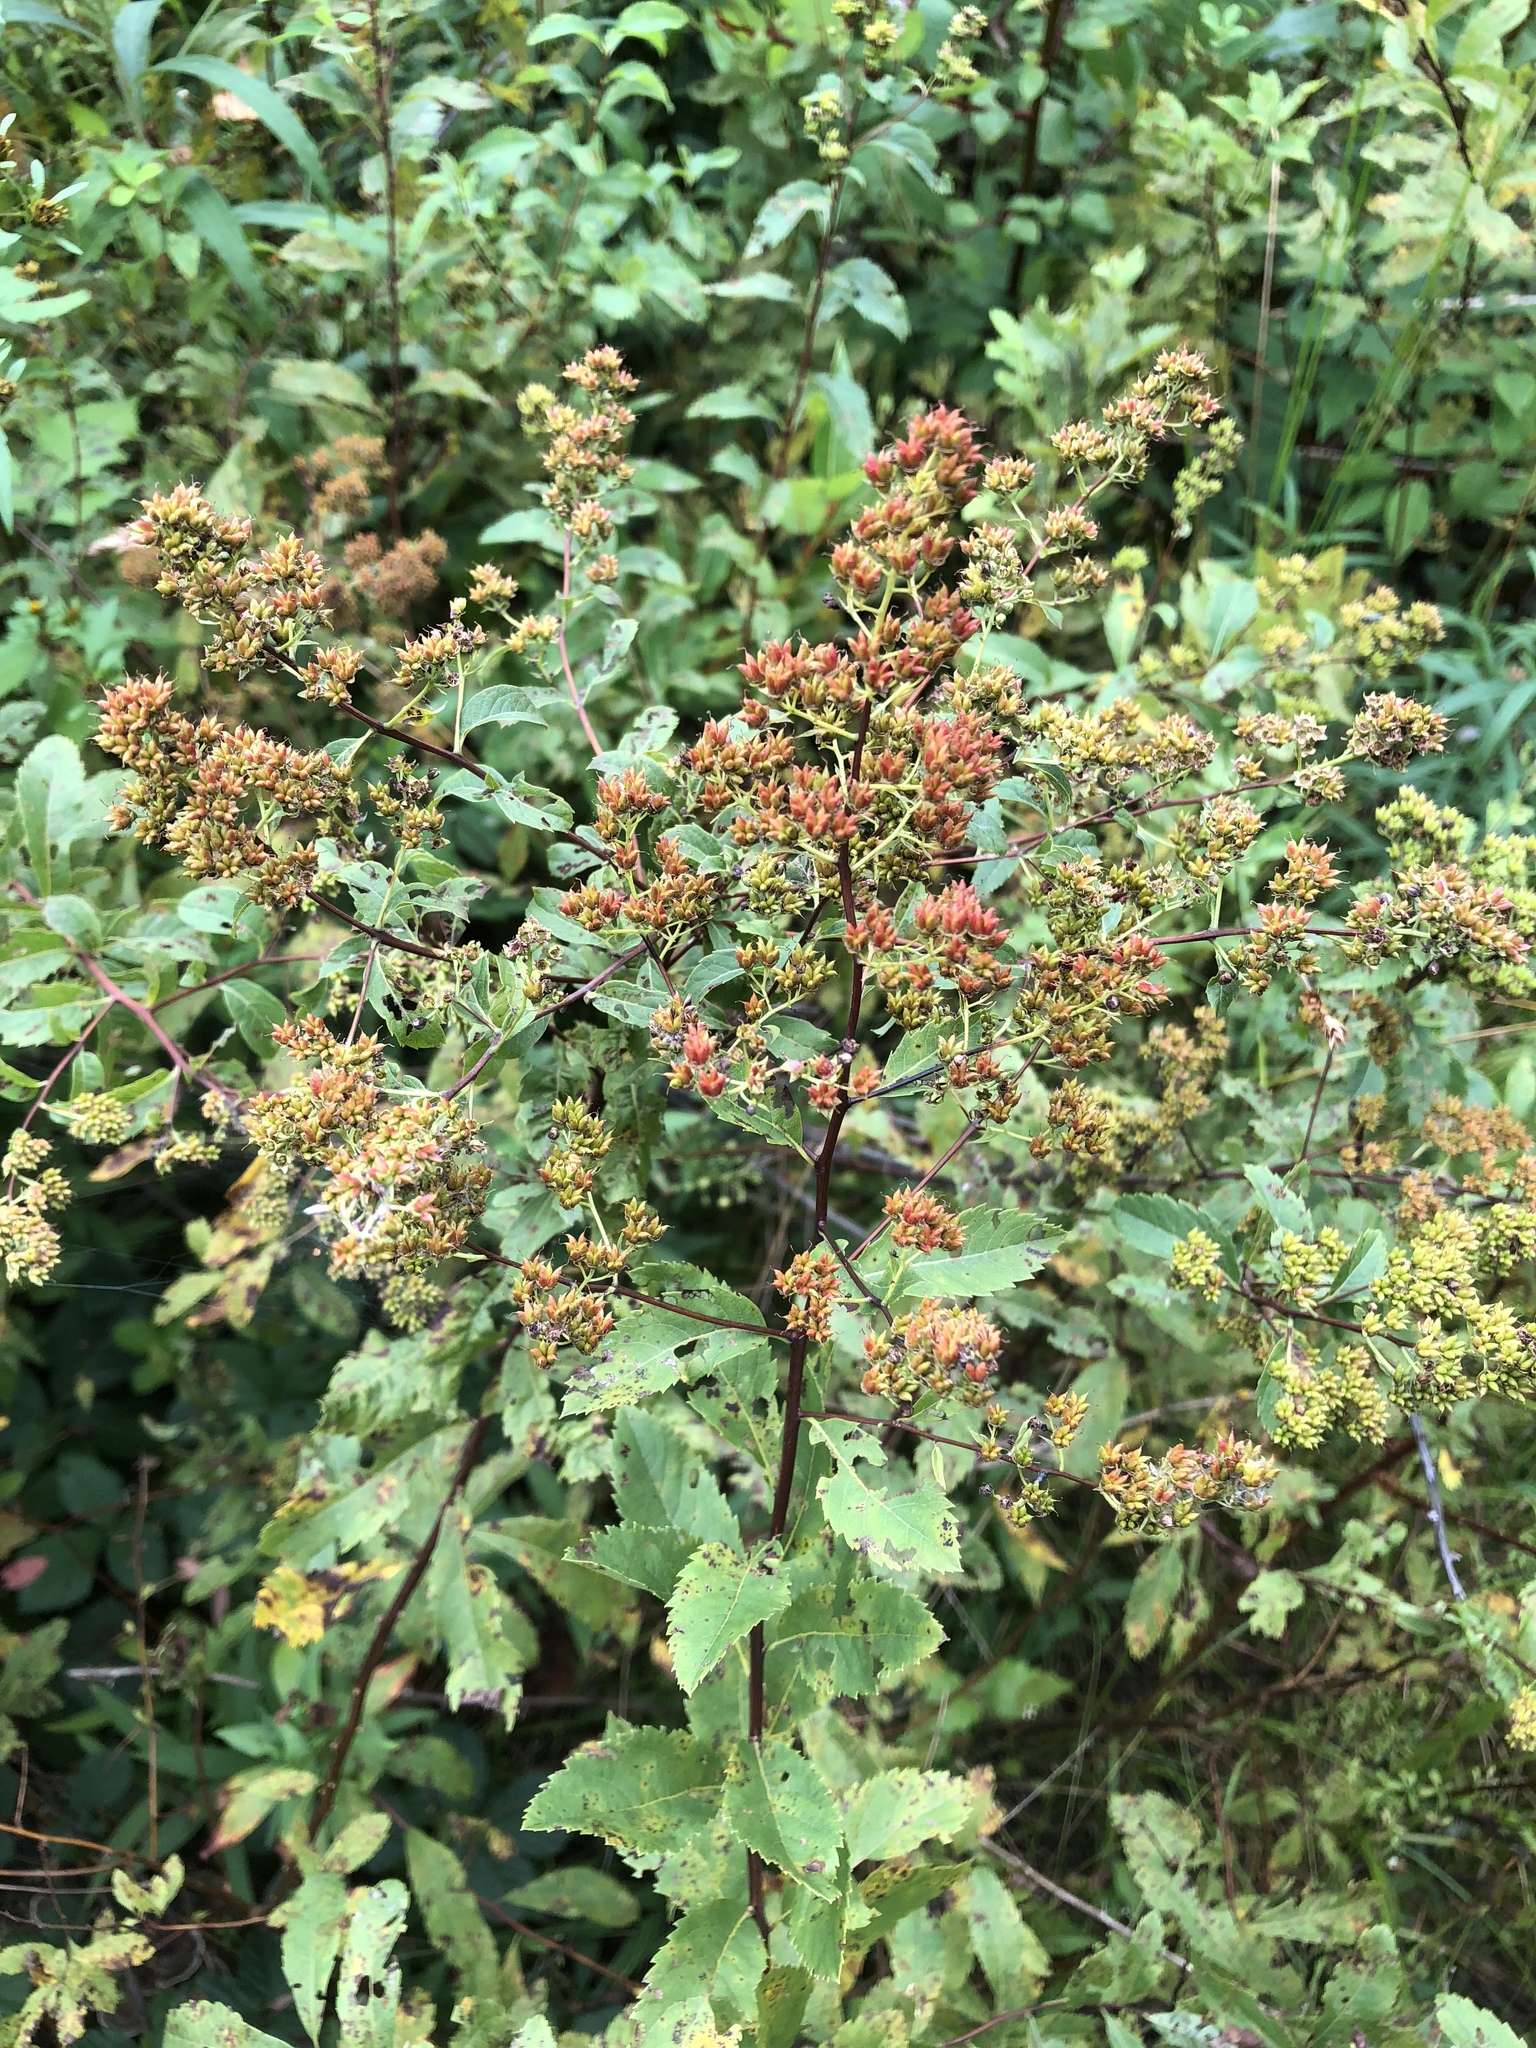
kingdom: Plantae
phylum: Tracheophyta
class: Magnoliopsida
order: Rosales
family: Rosaceae
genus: Spiraea
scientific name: Spiraea alba
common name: Pale bridewort
